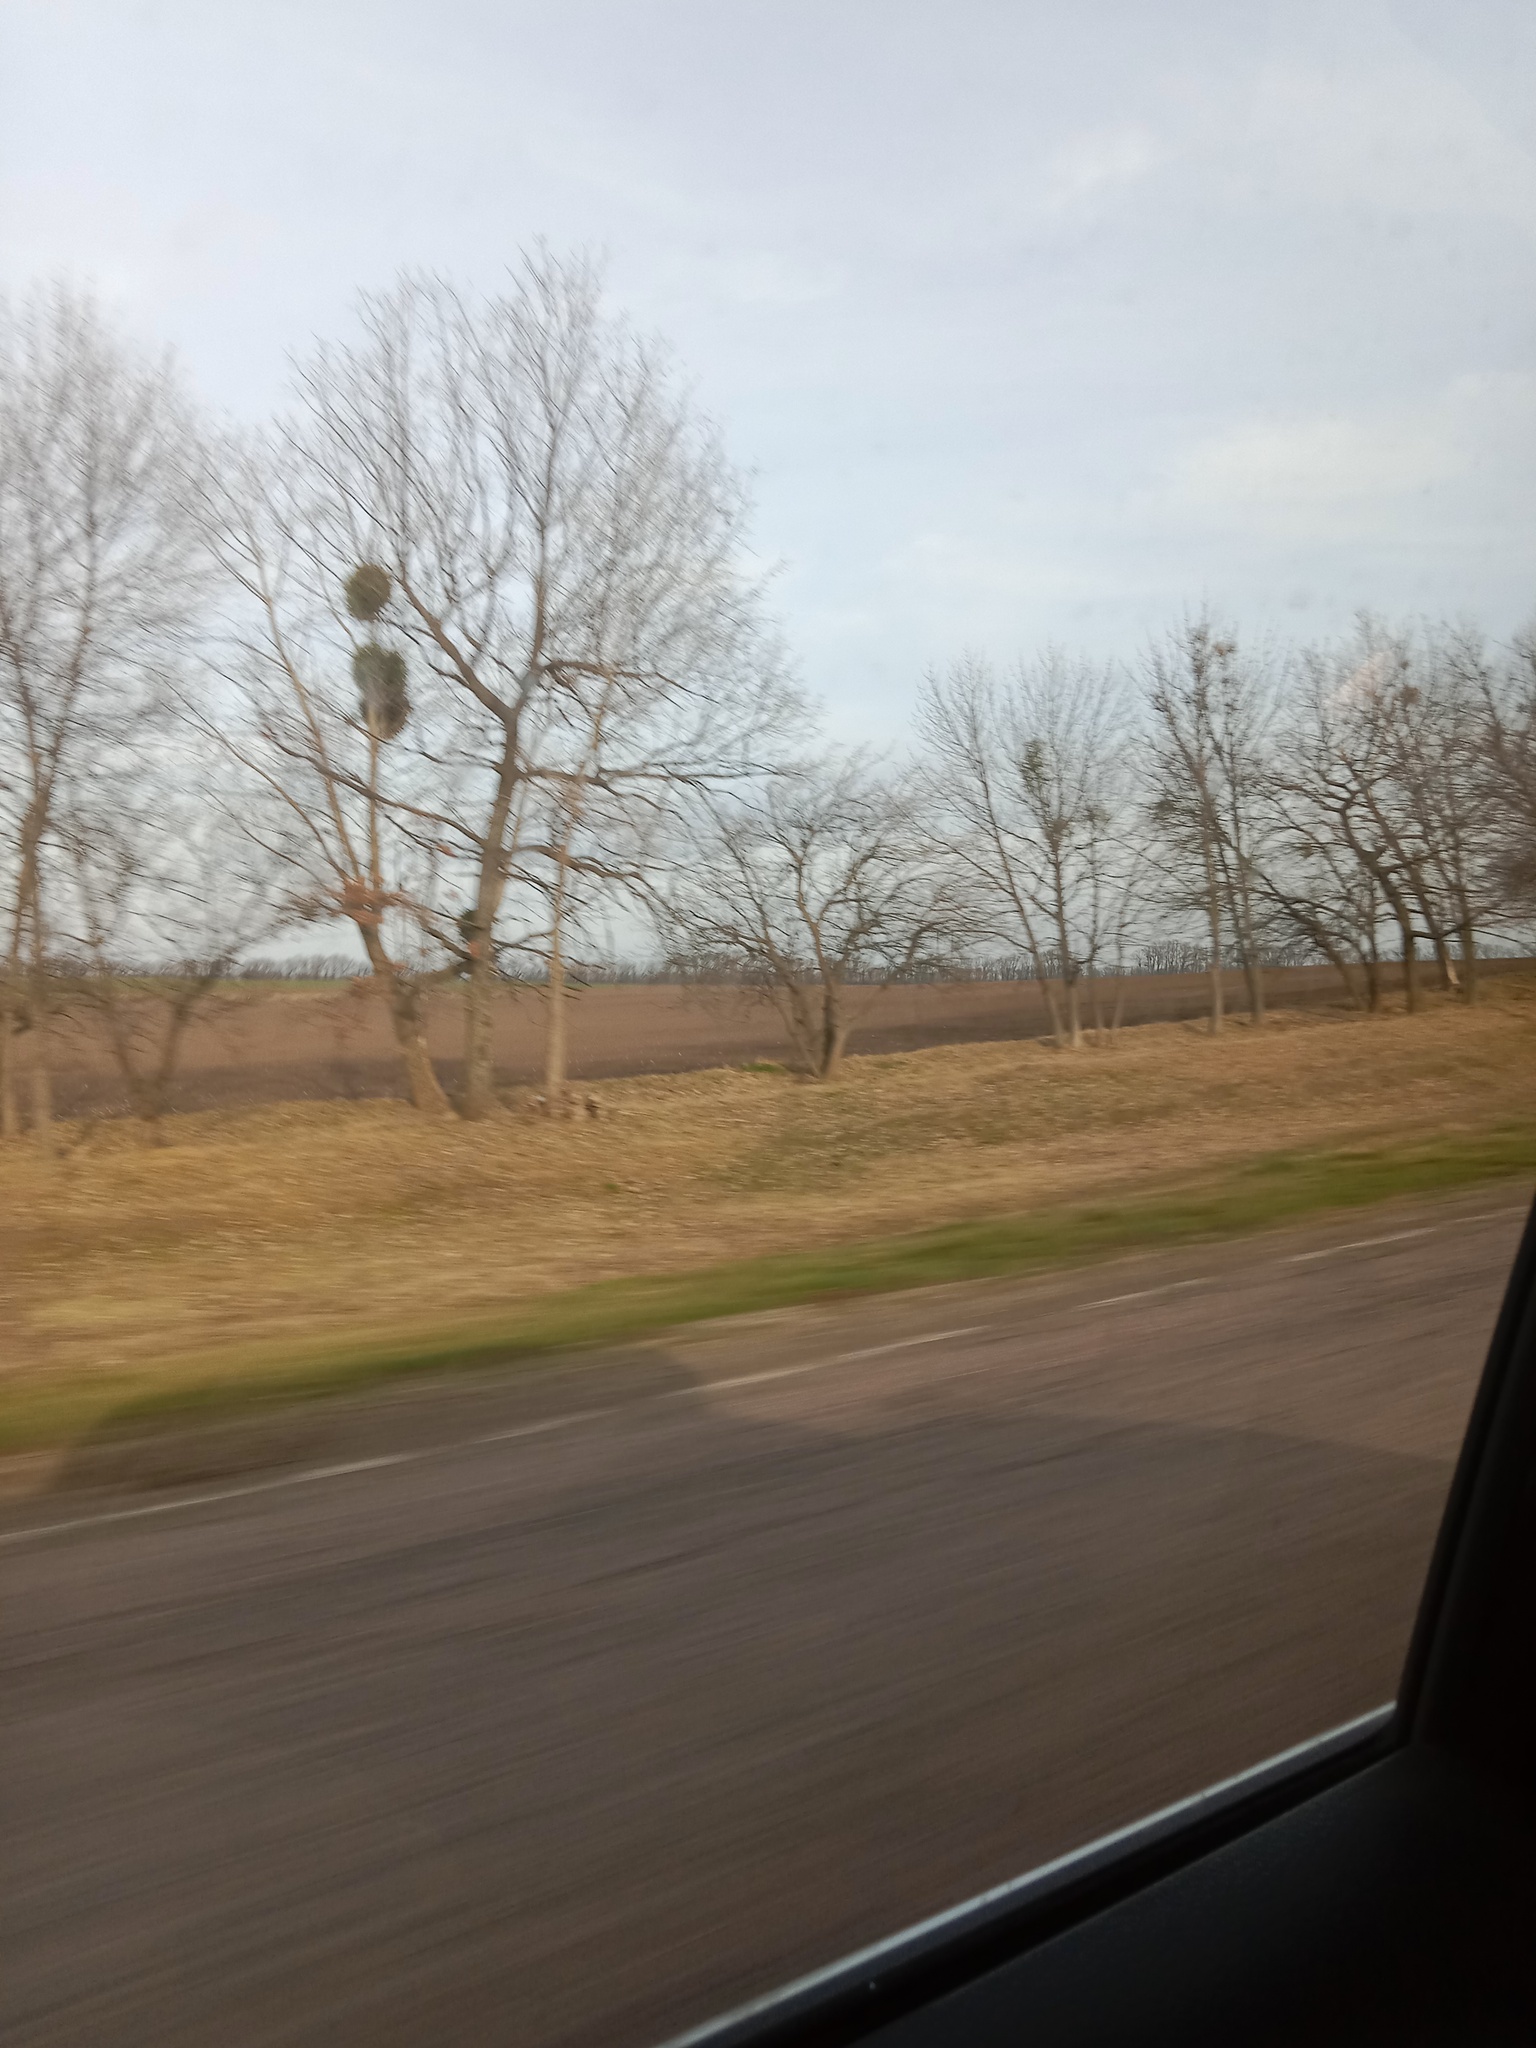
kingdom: Plantae
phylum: Tracheophyta
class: Magnoliopsida
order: Santalales
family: Viscaceae
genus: Viscum
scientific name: Viscum album
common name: Mistletoe
